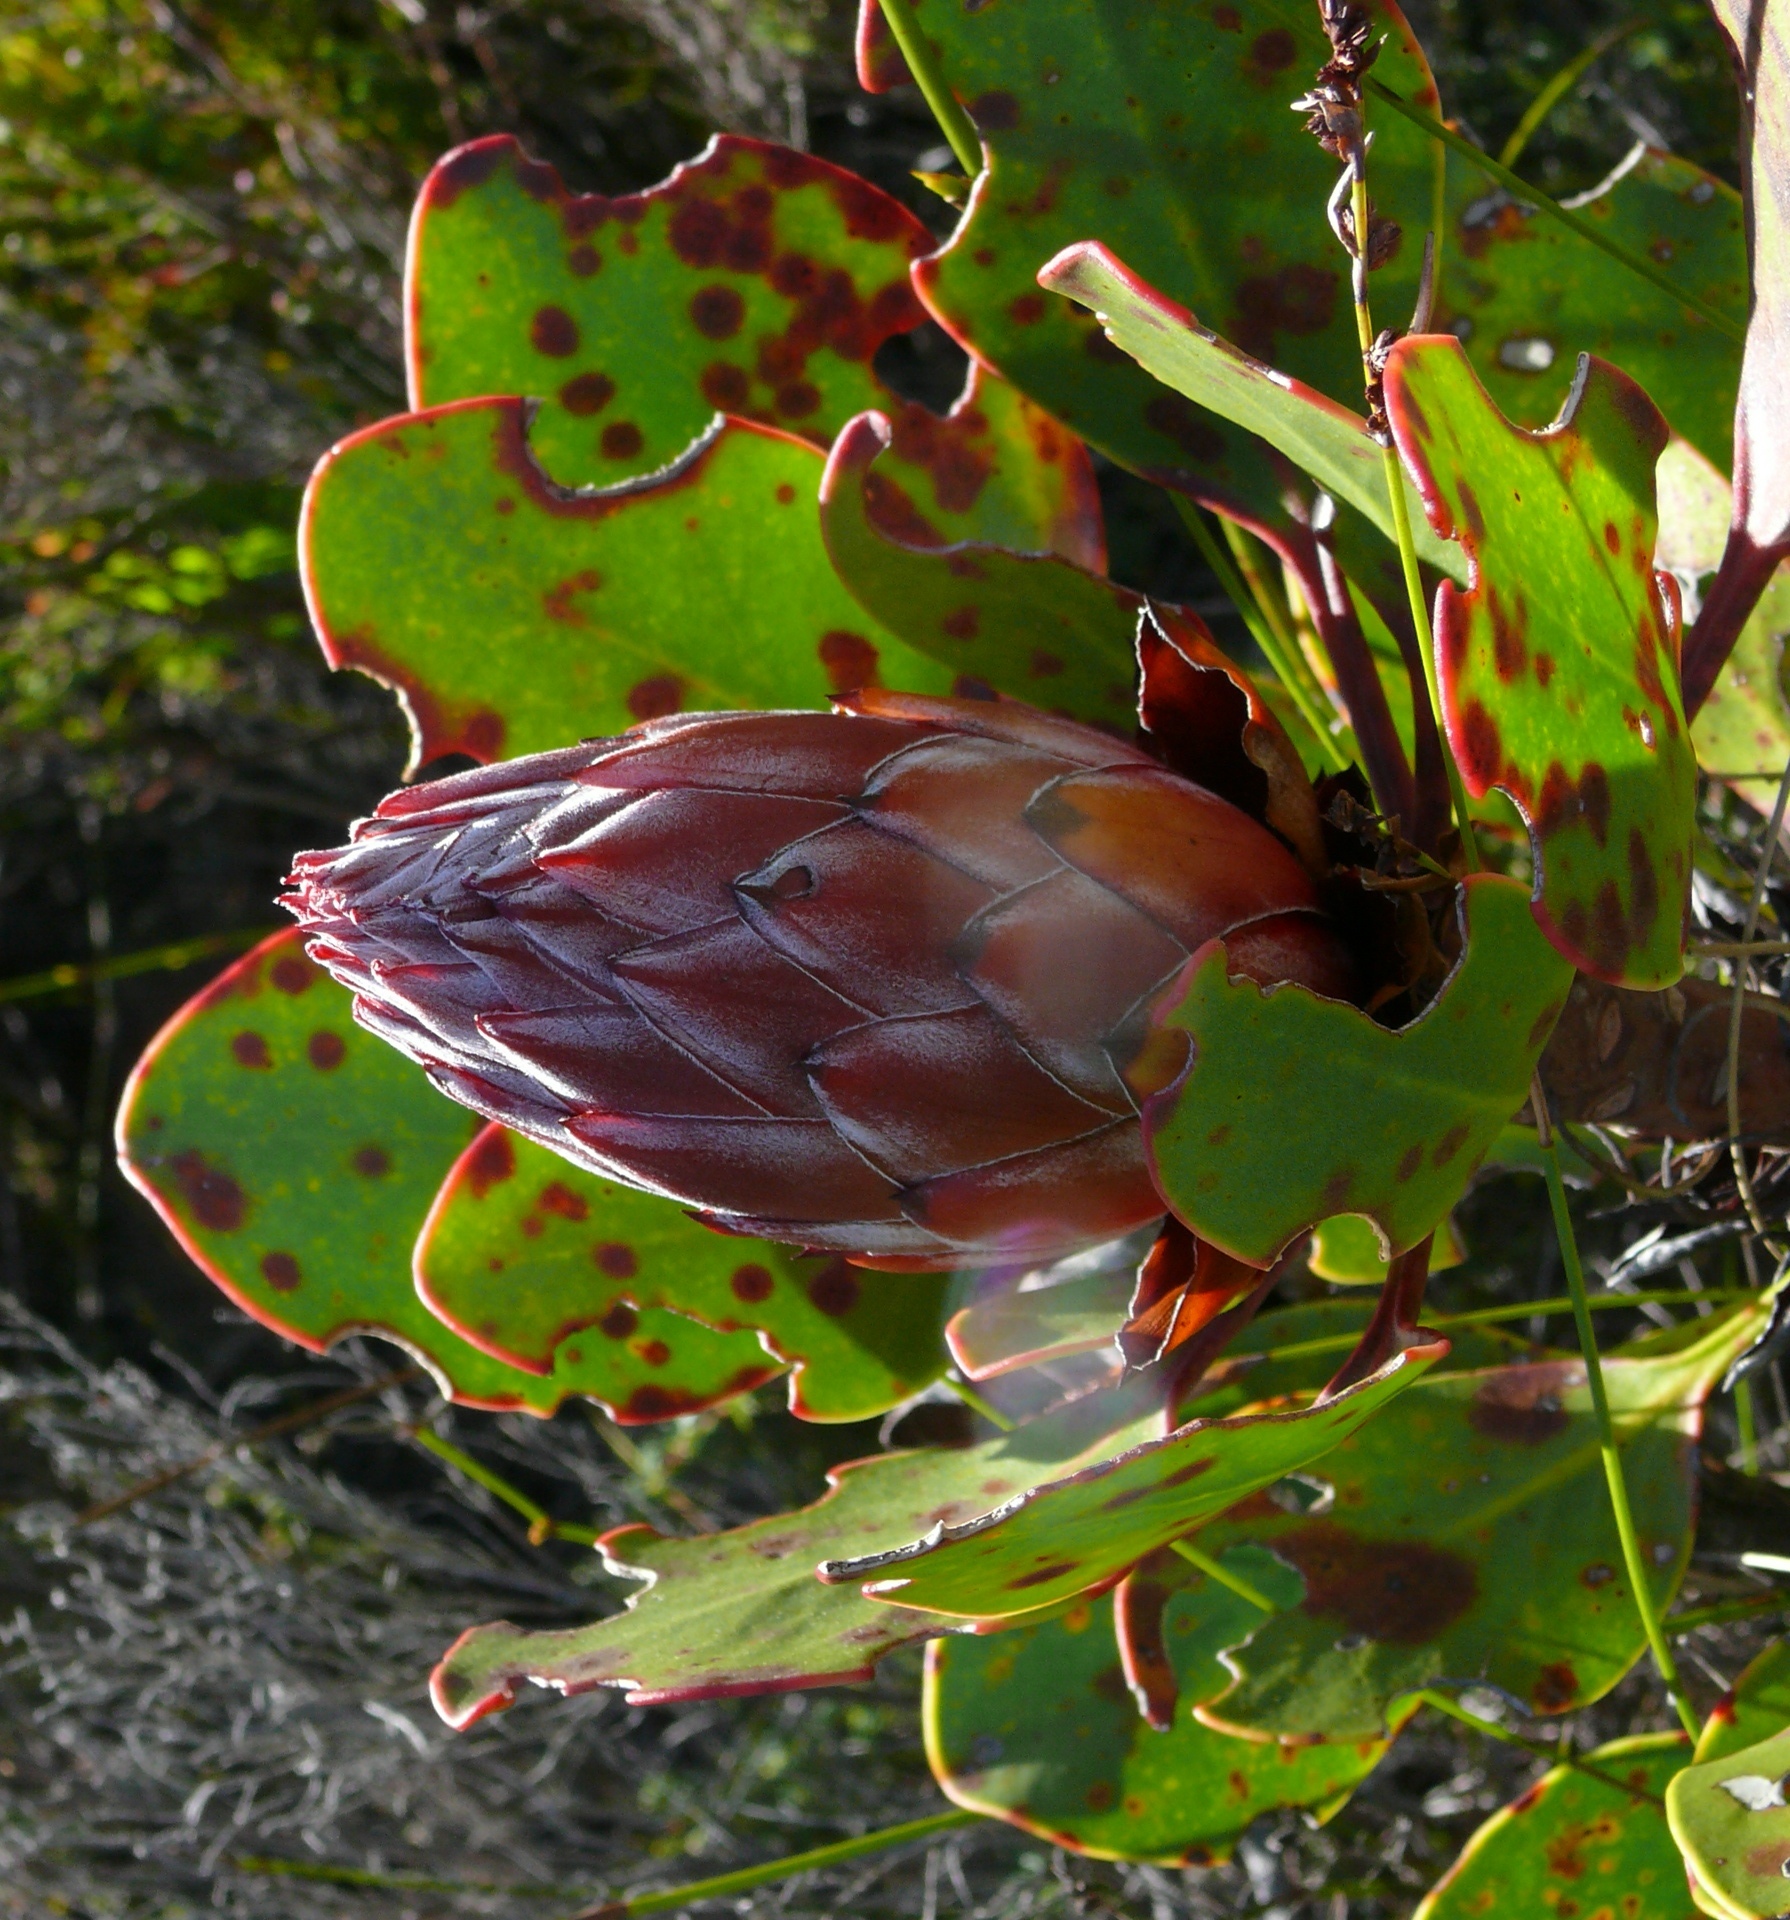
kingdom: Plantae
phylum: Tracheophyta
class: Magnoliopsida
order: Proteales
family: Proteaceae
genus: Protea
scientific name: Protea cynaroides
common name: King protea
